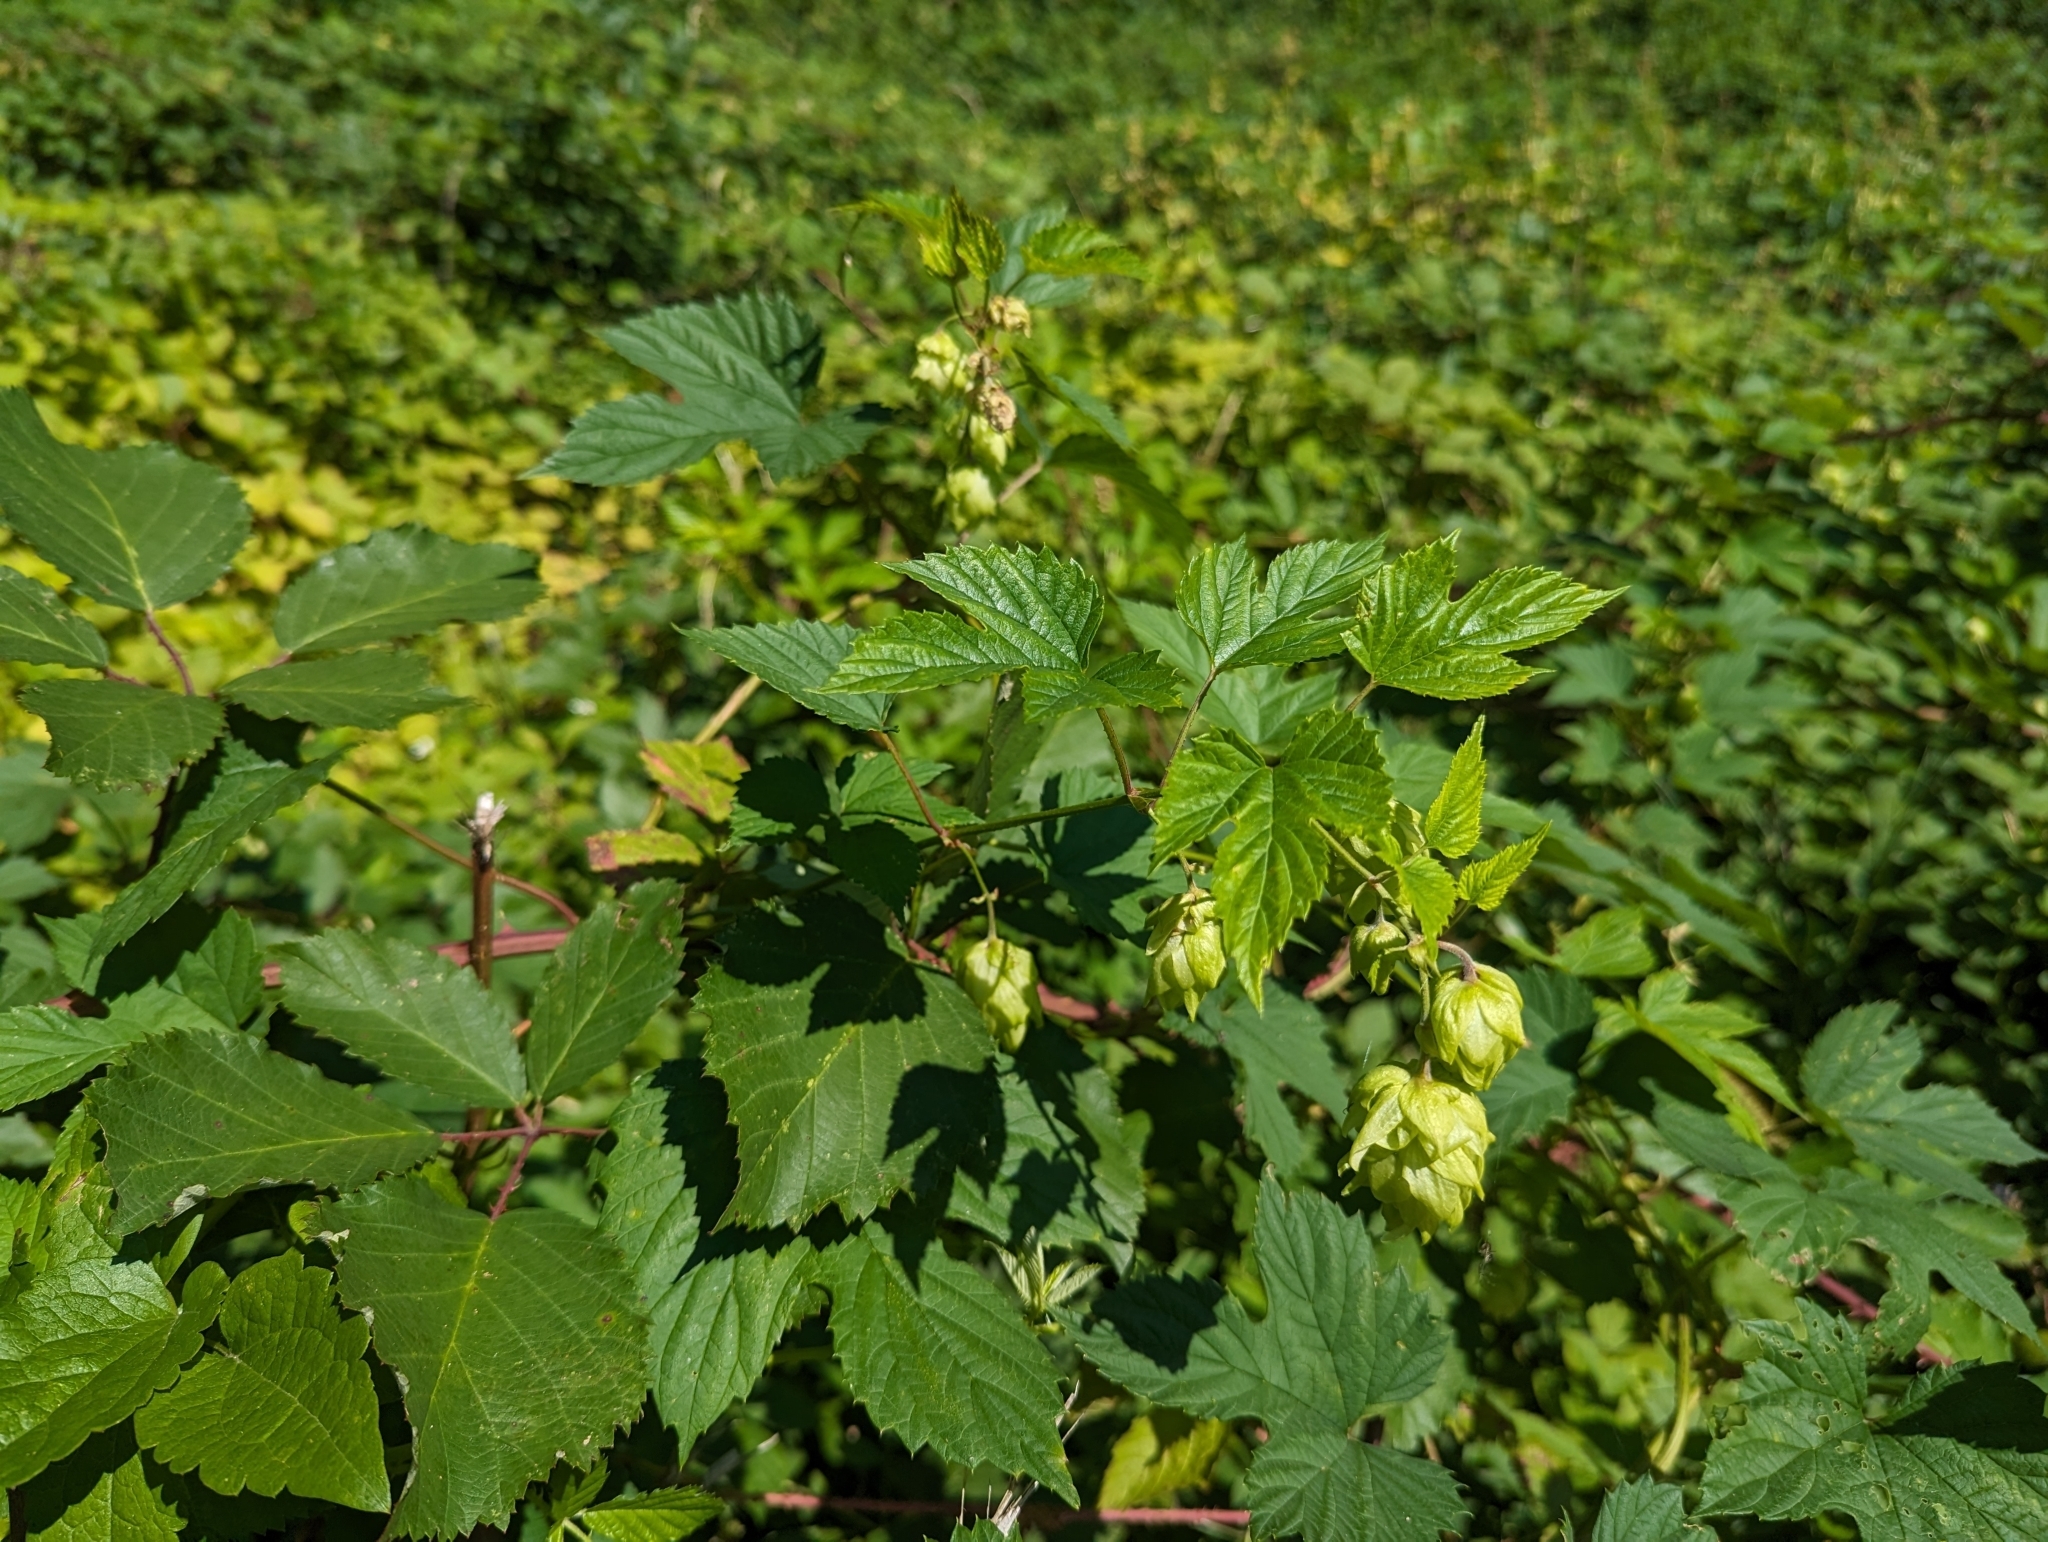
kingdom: Plantae
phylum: Tracheophyta
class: Magnoliopsida
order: Rosales
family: Cannabaceae
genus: Humulus
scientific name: Humulus lupulus
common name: Hop
